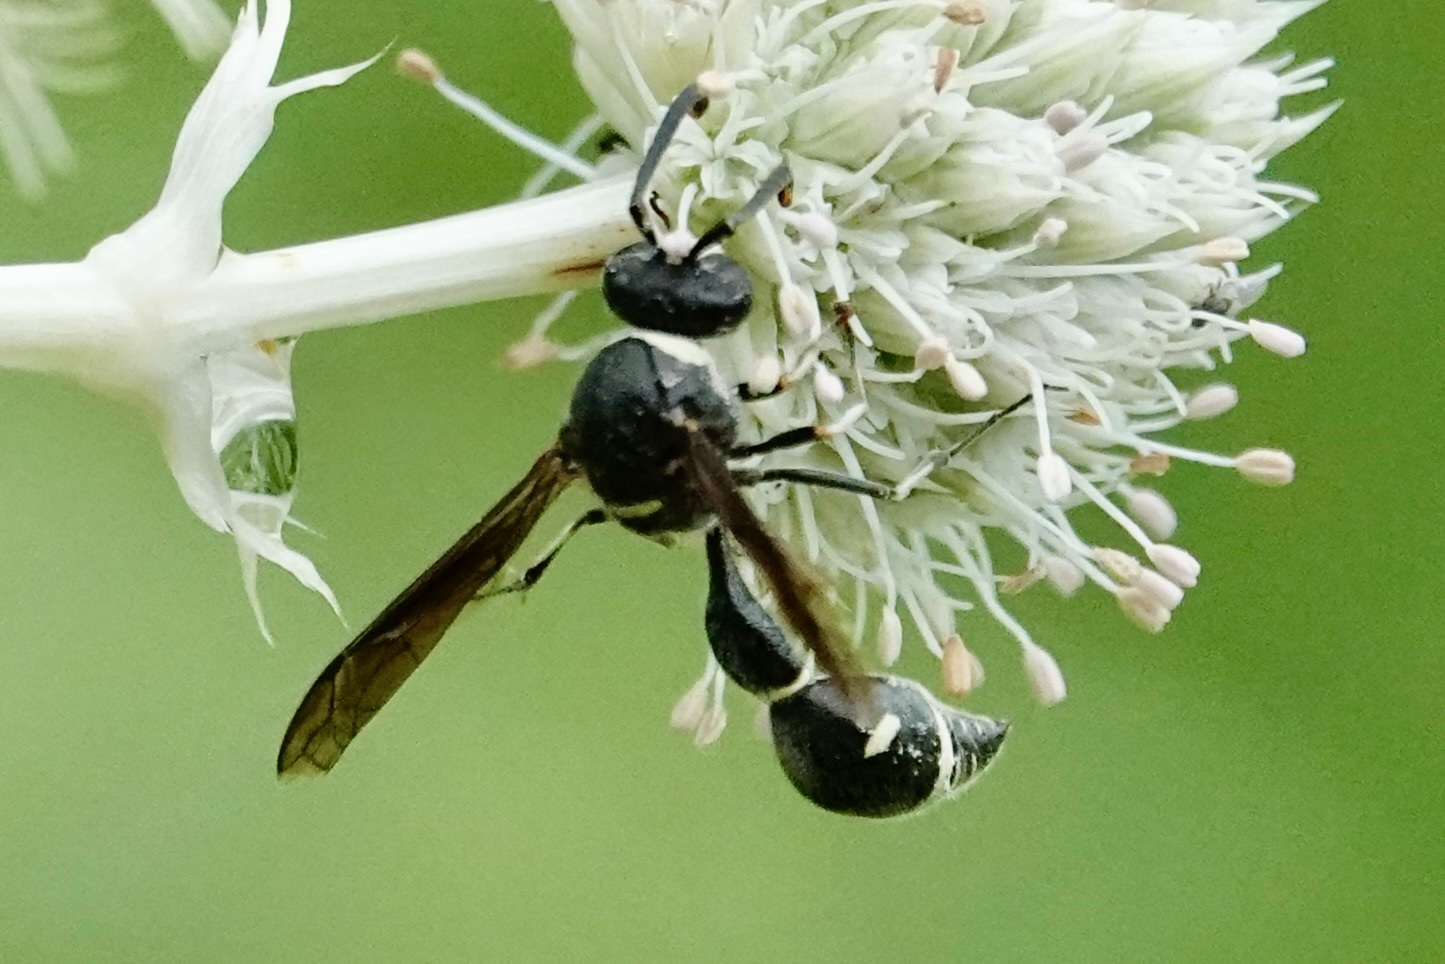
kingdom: Animalia
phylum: Arthropoda
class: Insecta
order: Hymenoptera
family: Vespidae
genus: Eumenes
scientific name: Eumenes fraternus
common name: Fraternal potter wasp
